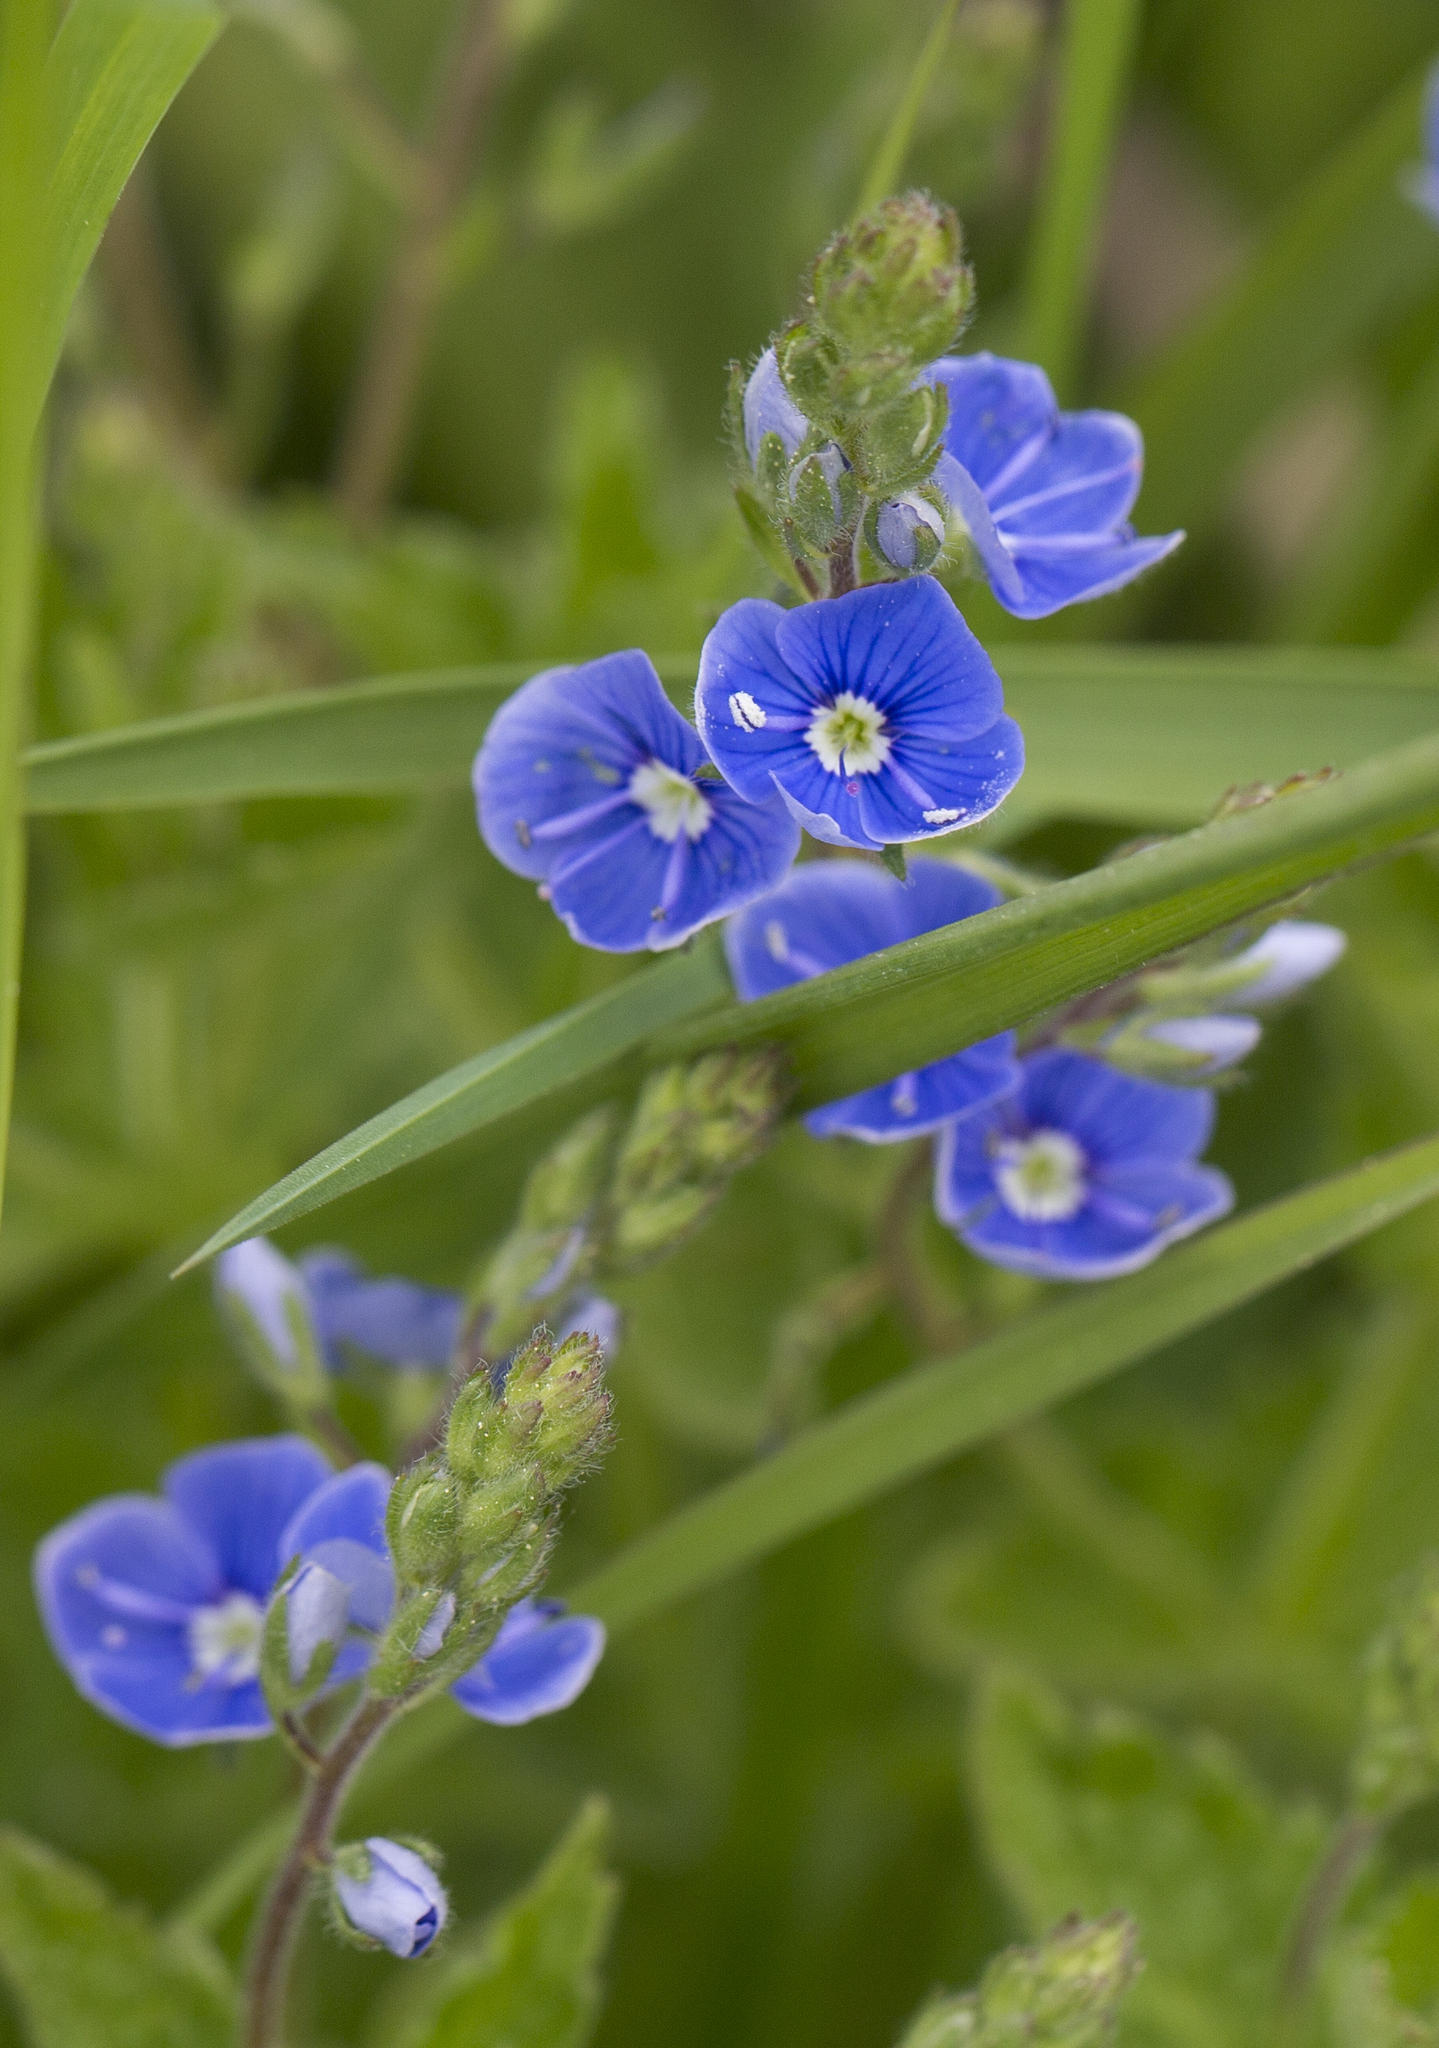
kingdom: Plantae
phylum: Tracheophyta
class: Magnoliopsida
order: Lamiales
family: Plantaginaceae
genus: Veronica
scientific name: Veronica chamaedrys
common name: Germander speedwell
